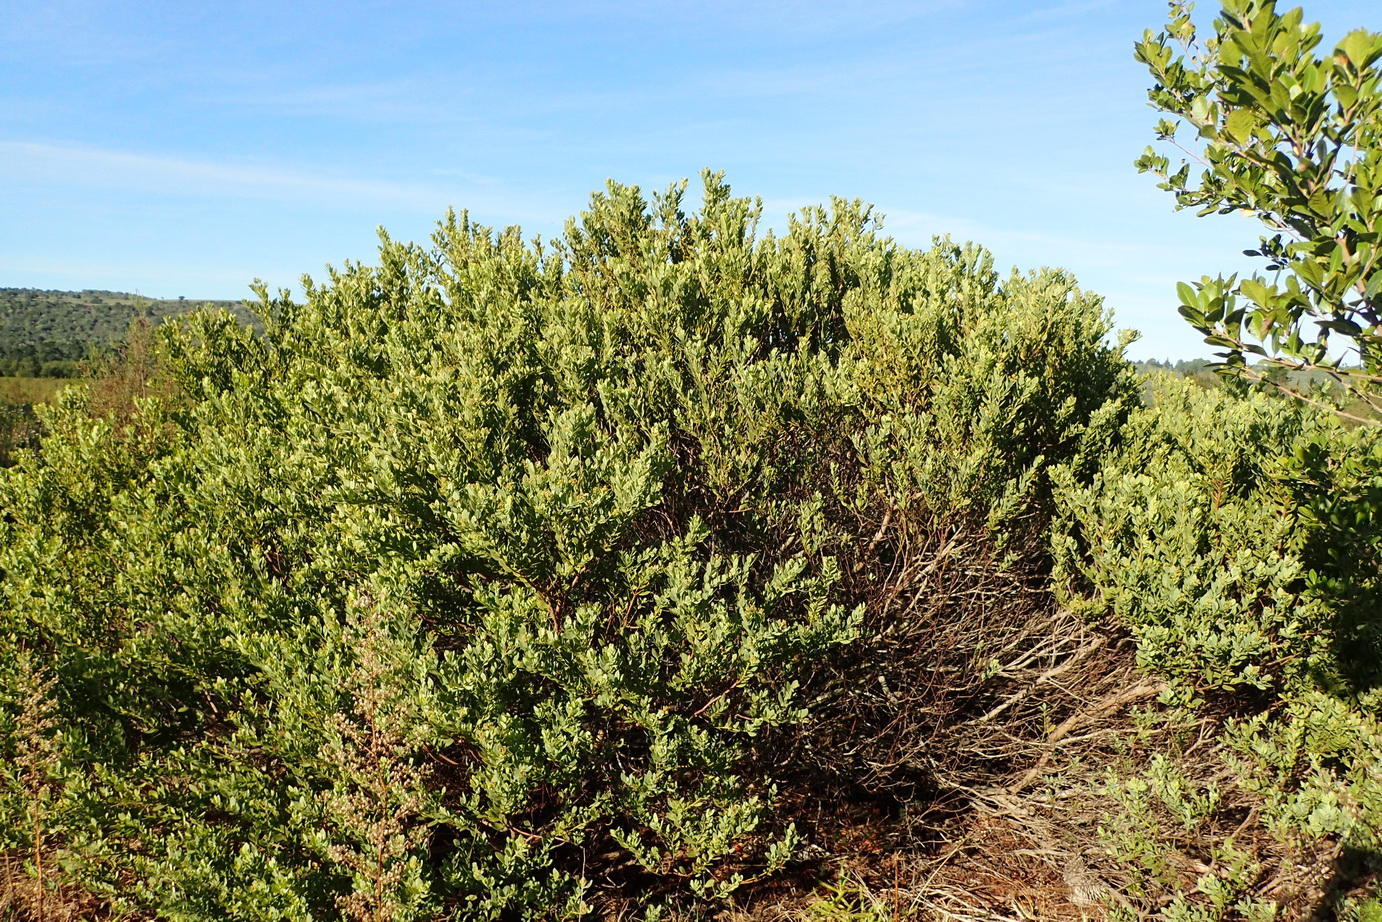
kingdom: Plantae
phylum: Tracheophyta
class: Magnoliopsida
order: Santalales
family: Santalaceae
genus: Osyris
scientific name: Osyris compressa
